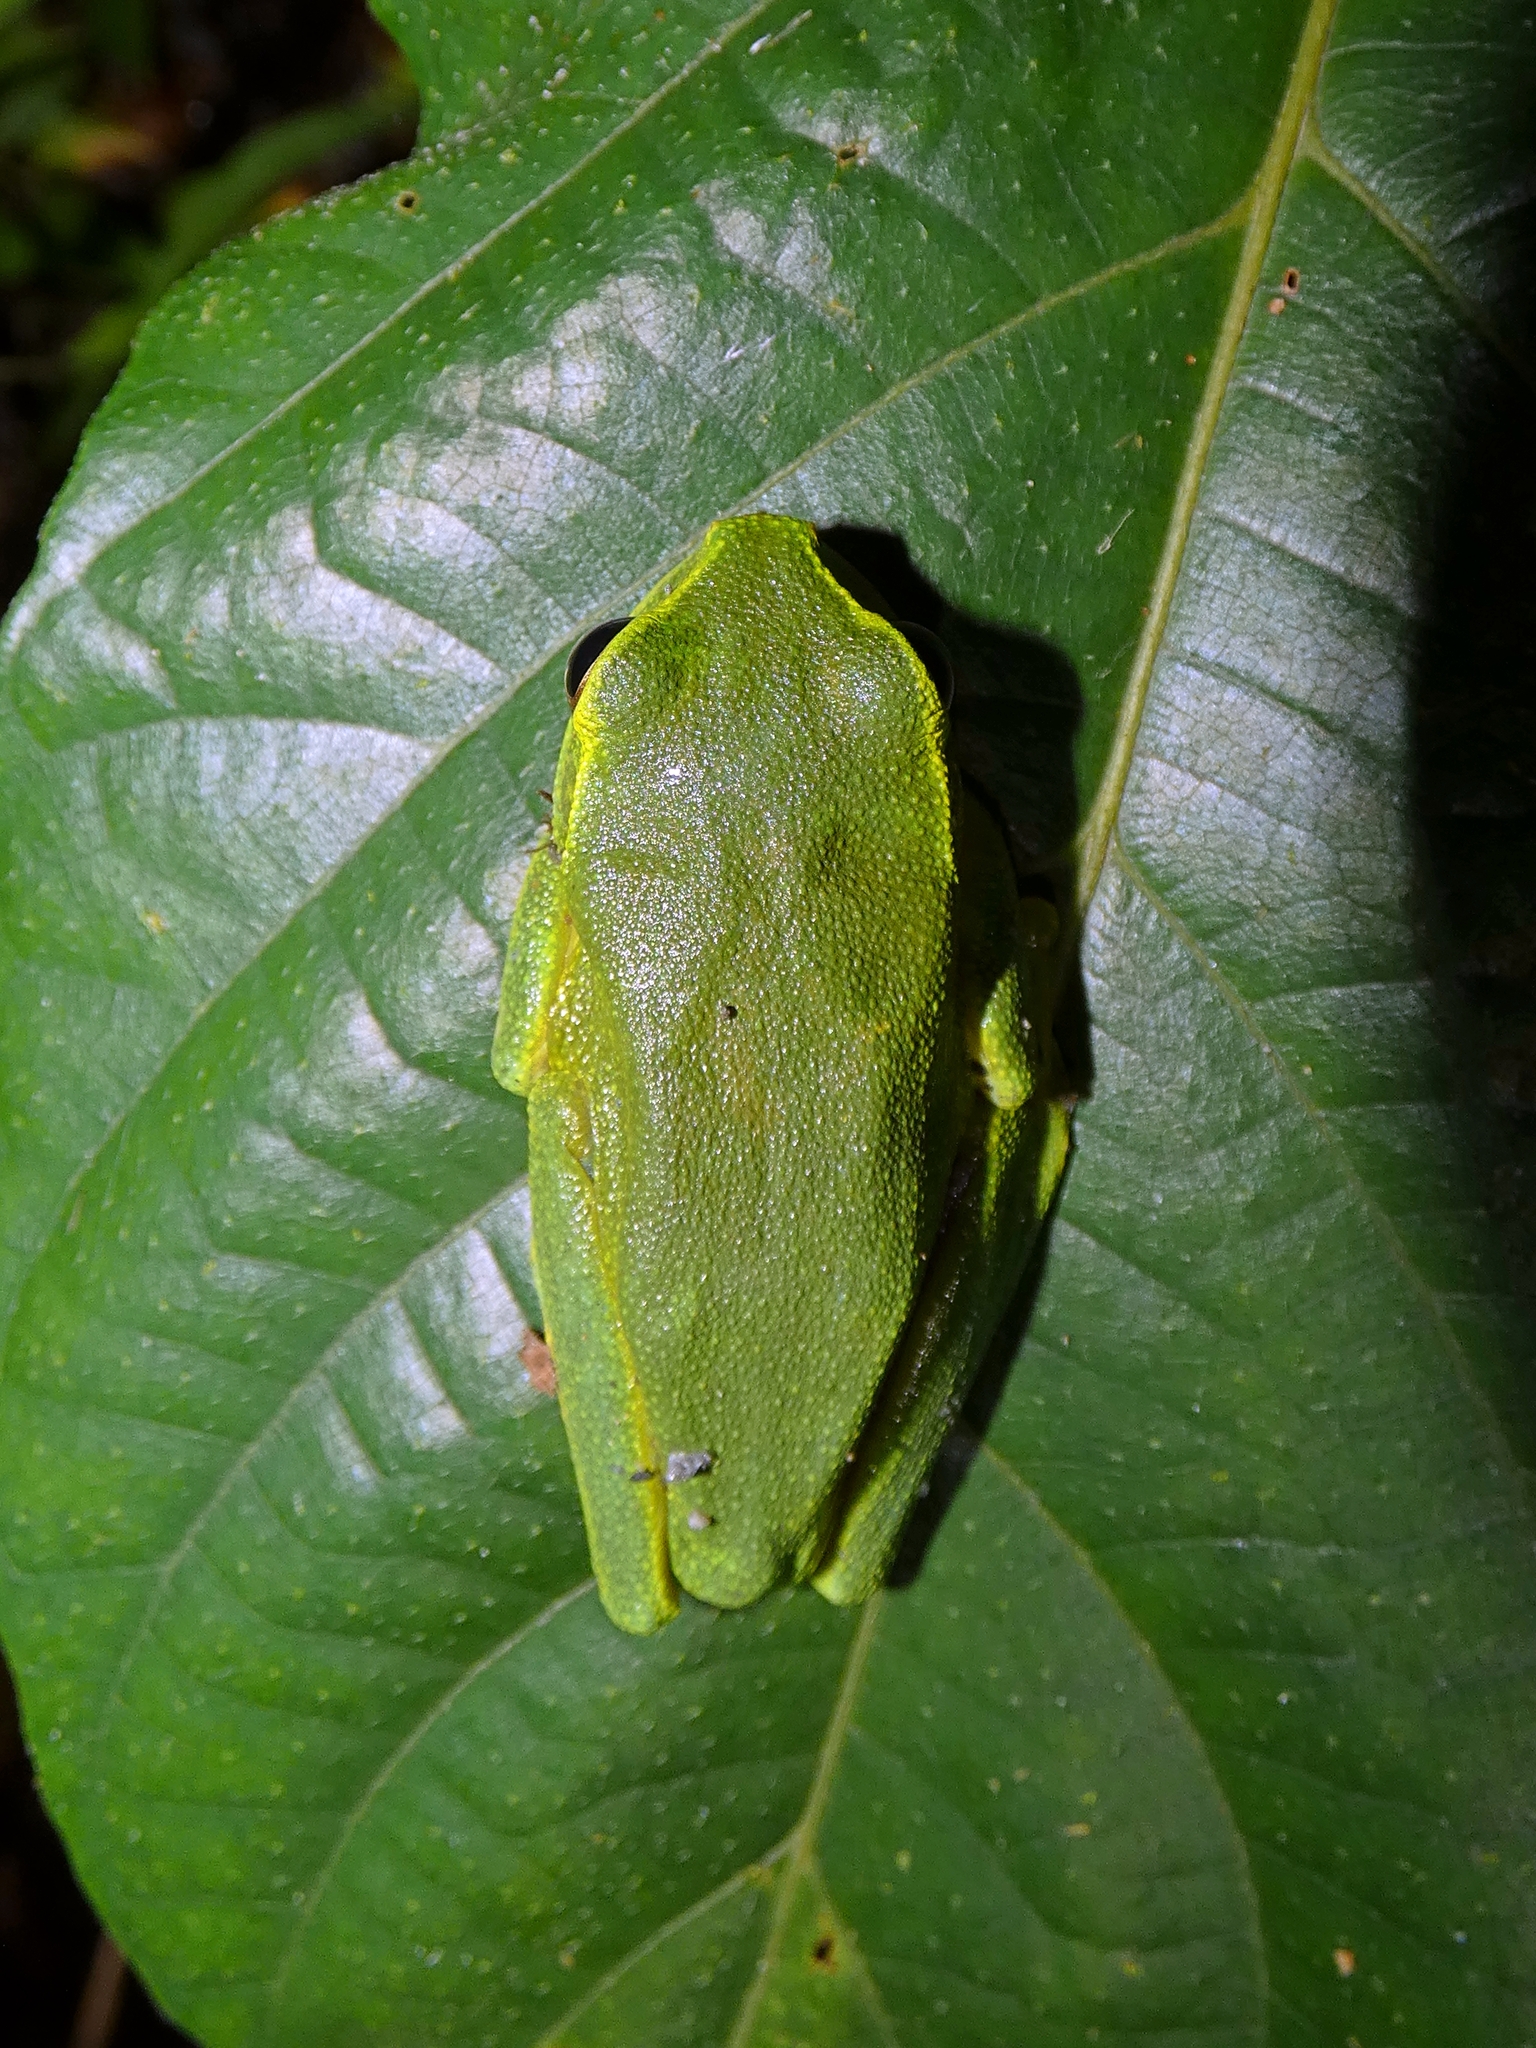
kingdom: Animalia
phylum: Chordata
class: Amphibia
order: Anura
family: Pelodryadidae
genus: Ranoidea
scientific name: Ranoidea gracilenta
